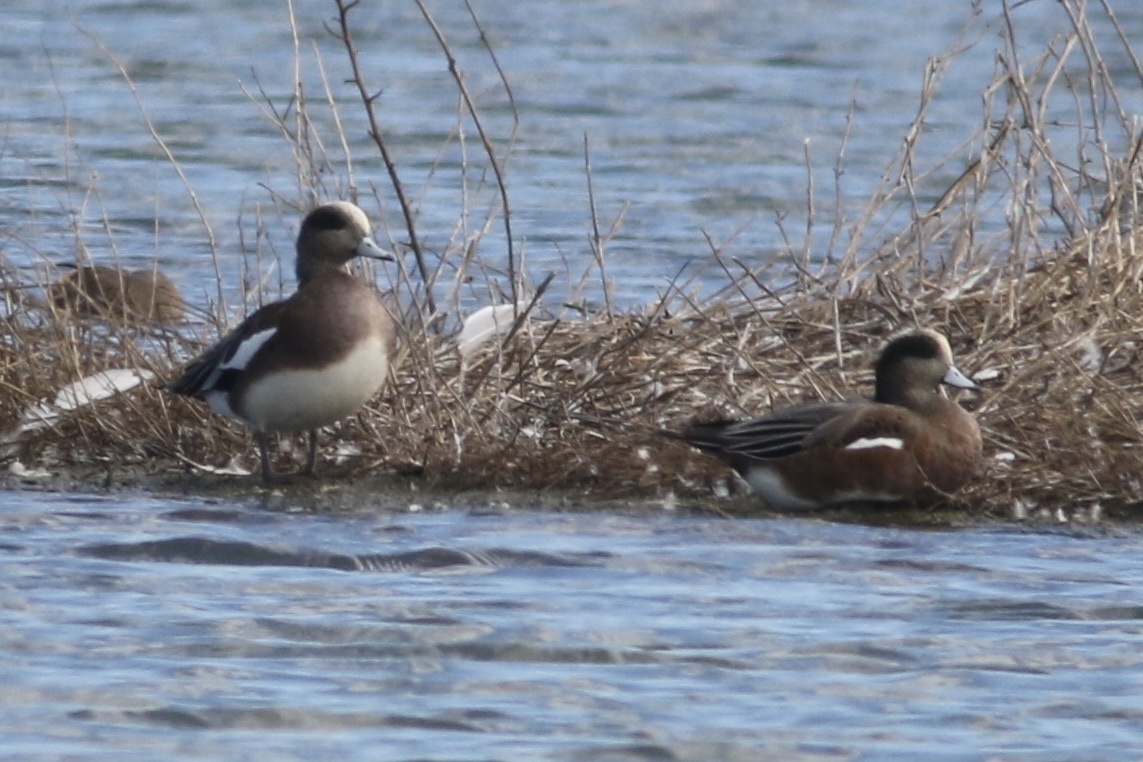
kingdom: Animalia
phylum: Chordata
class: Aves
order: Anseriformes
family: Anatidae
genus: Mareca
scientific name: Mareca americana
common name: American wigeon
